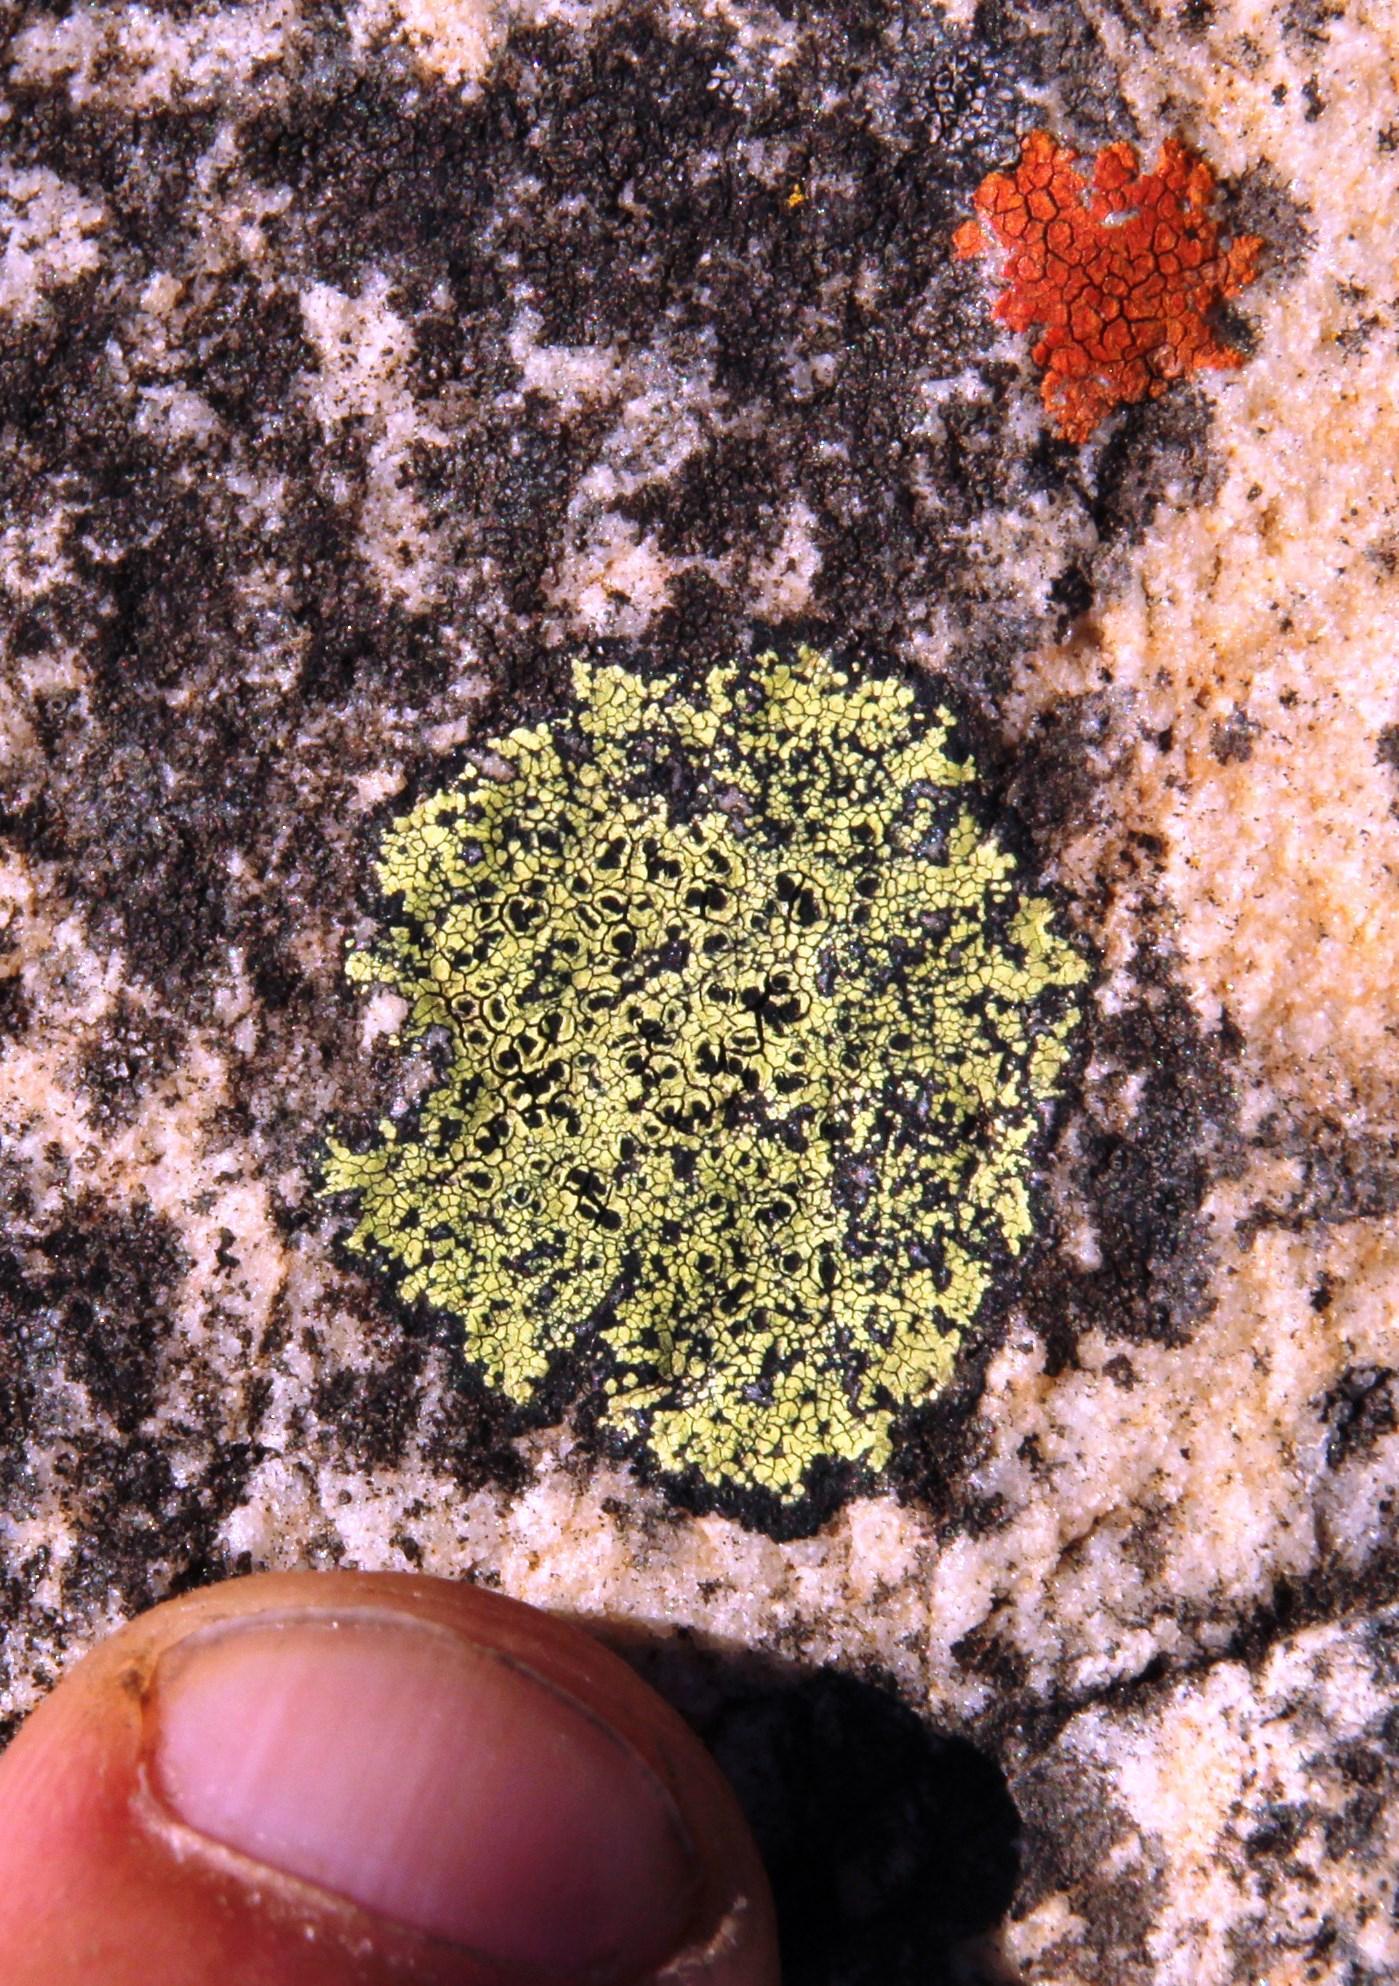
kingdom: Fungi
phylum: Ascomycota
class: Lecanoromycetes
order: Rhizocarpales
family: Rhizocarpaceae
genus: Rhizocarpon
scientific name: Rhizocarpon lecanorinum
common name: Crescent map lichen
